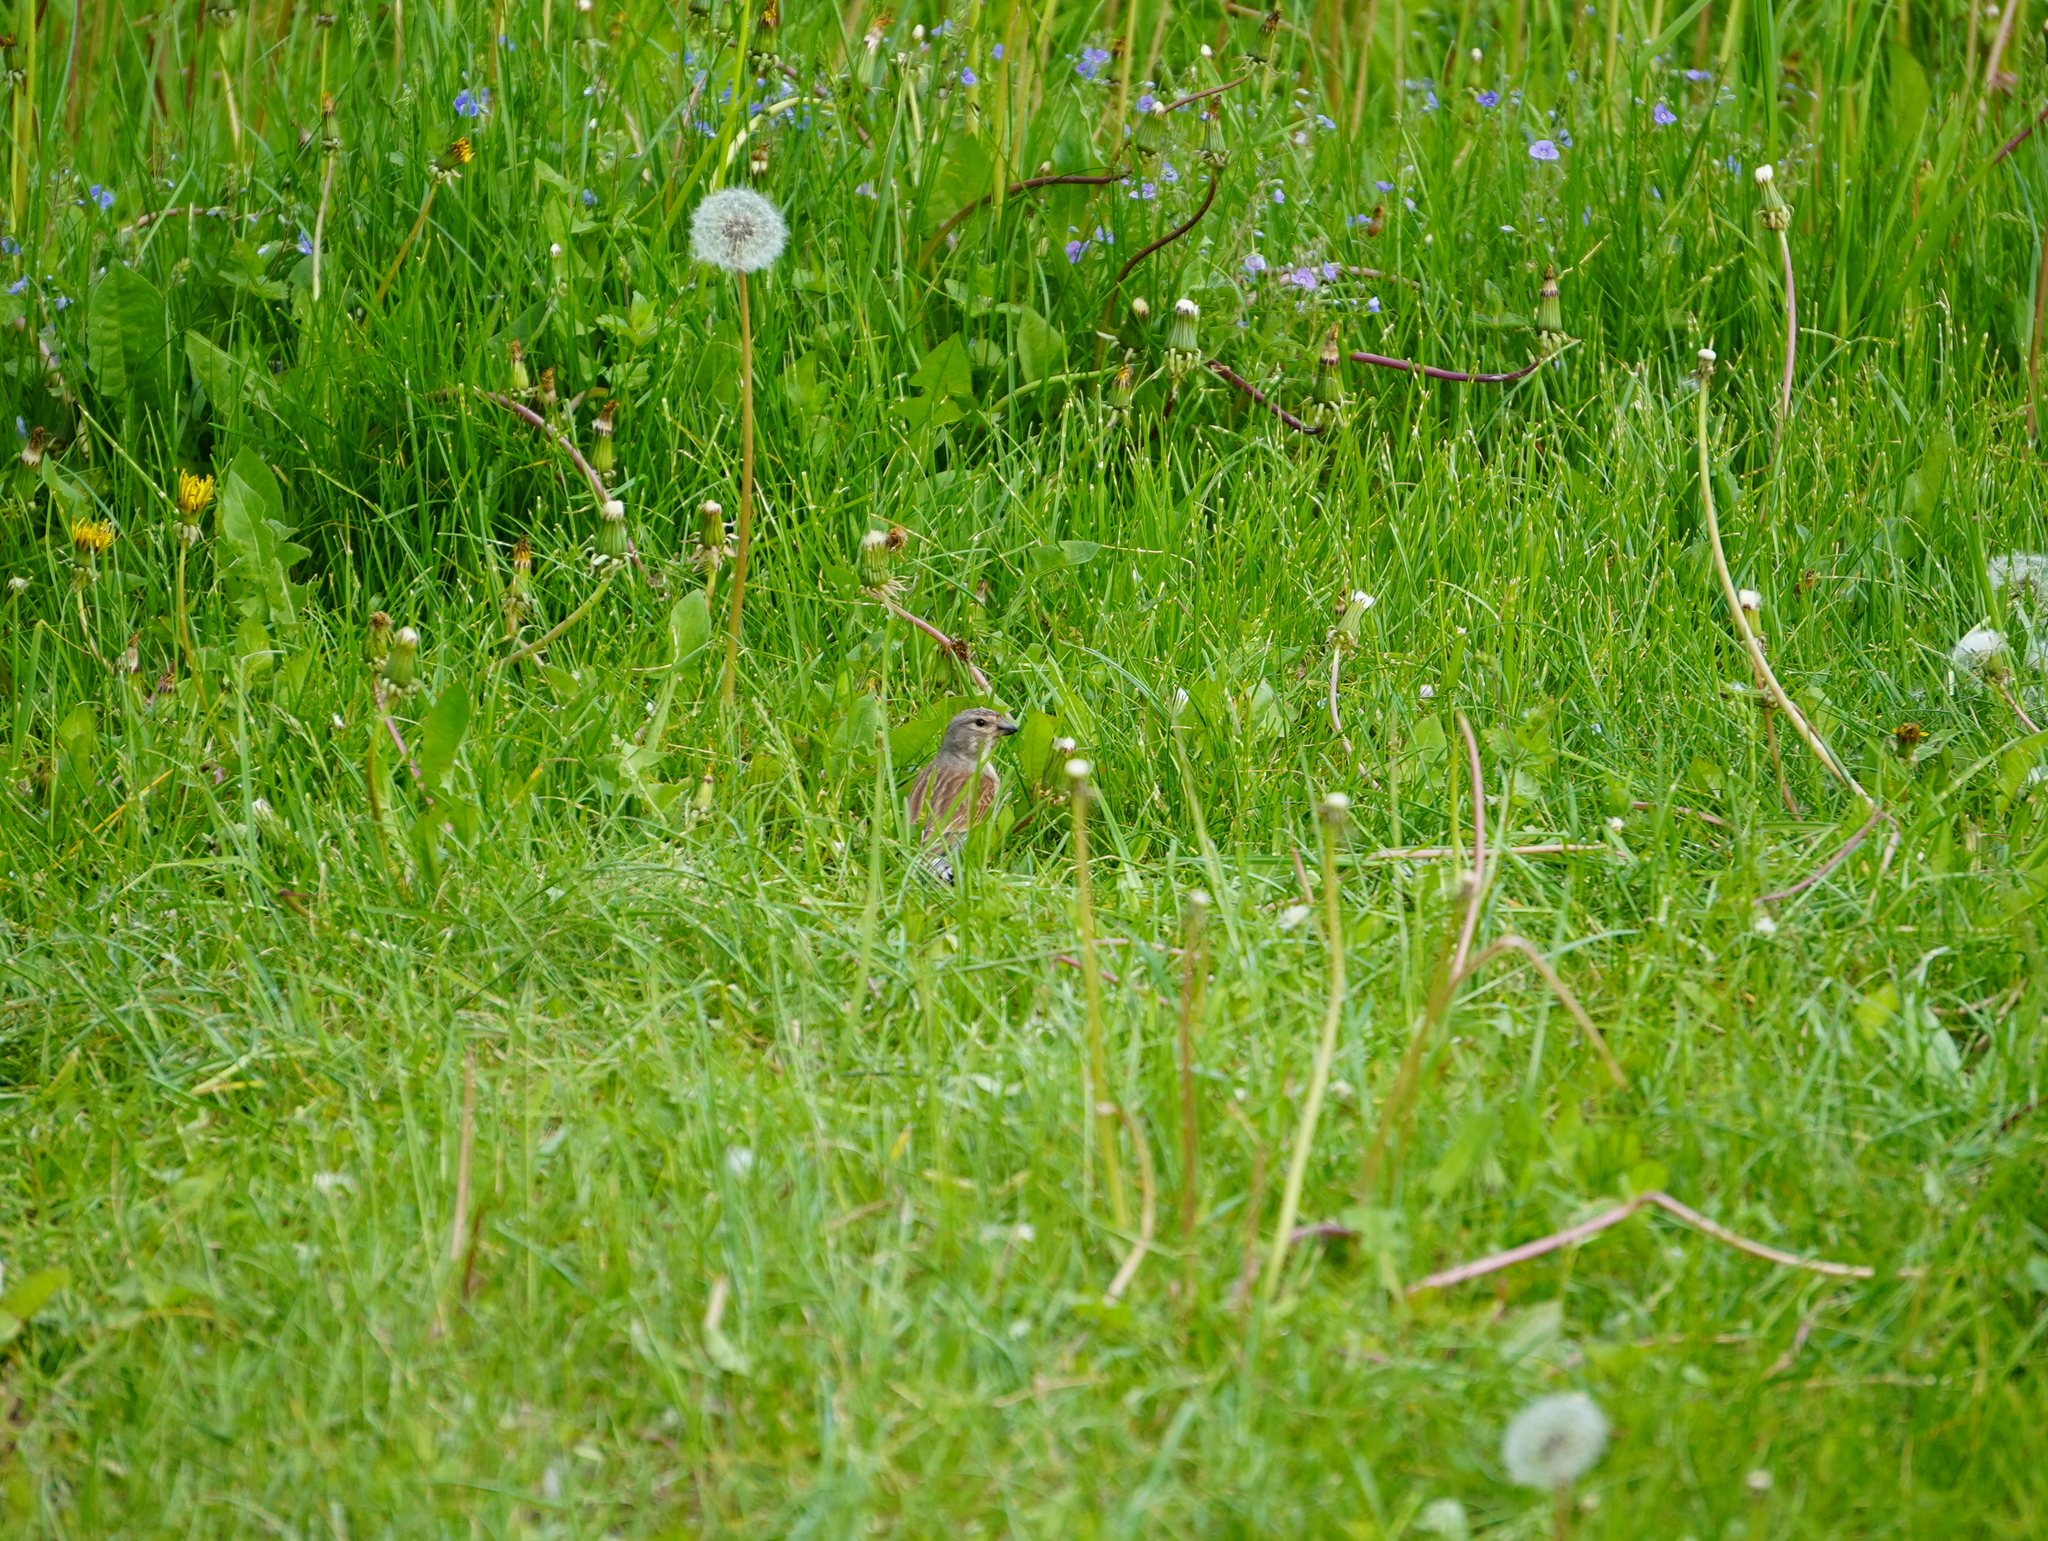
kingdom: Animalia
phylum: Chordata
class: Aves
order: Passeriformes
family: Fringillidae
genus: Linaria
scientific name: Linaria cannabina
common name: Common linnet
